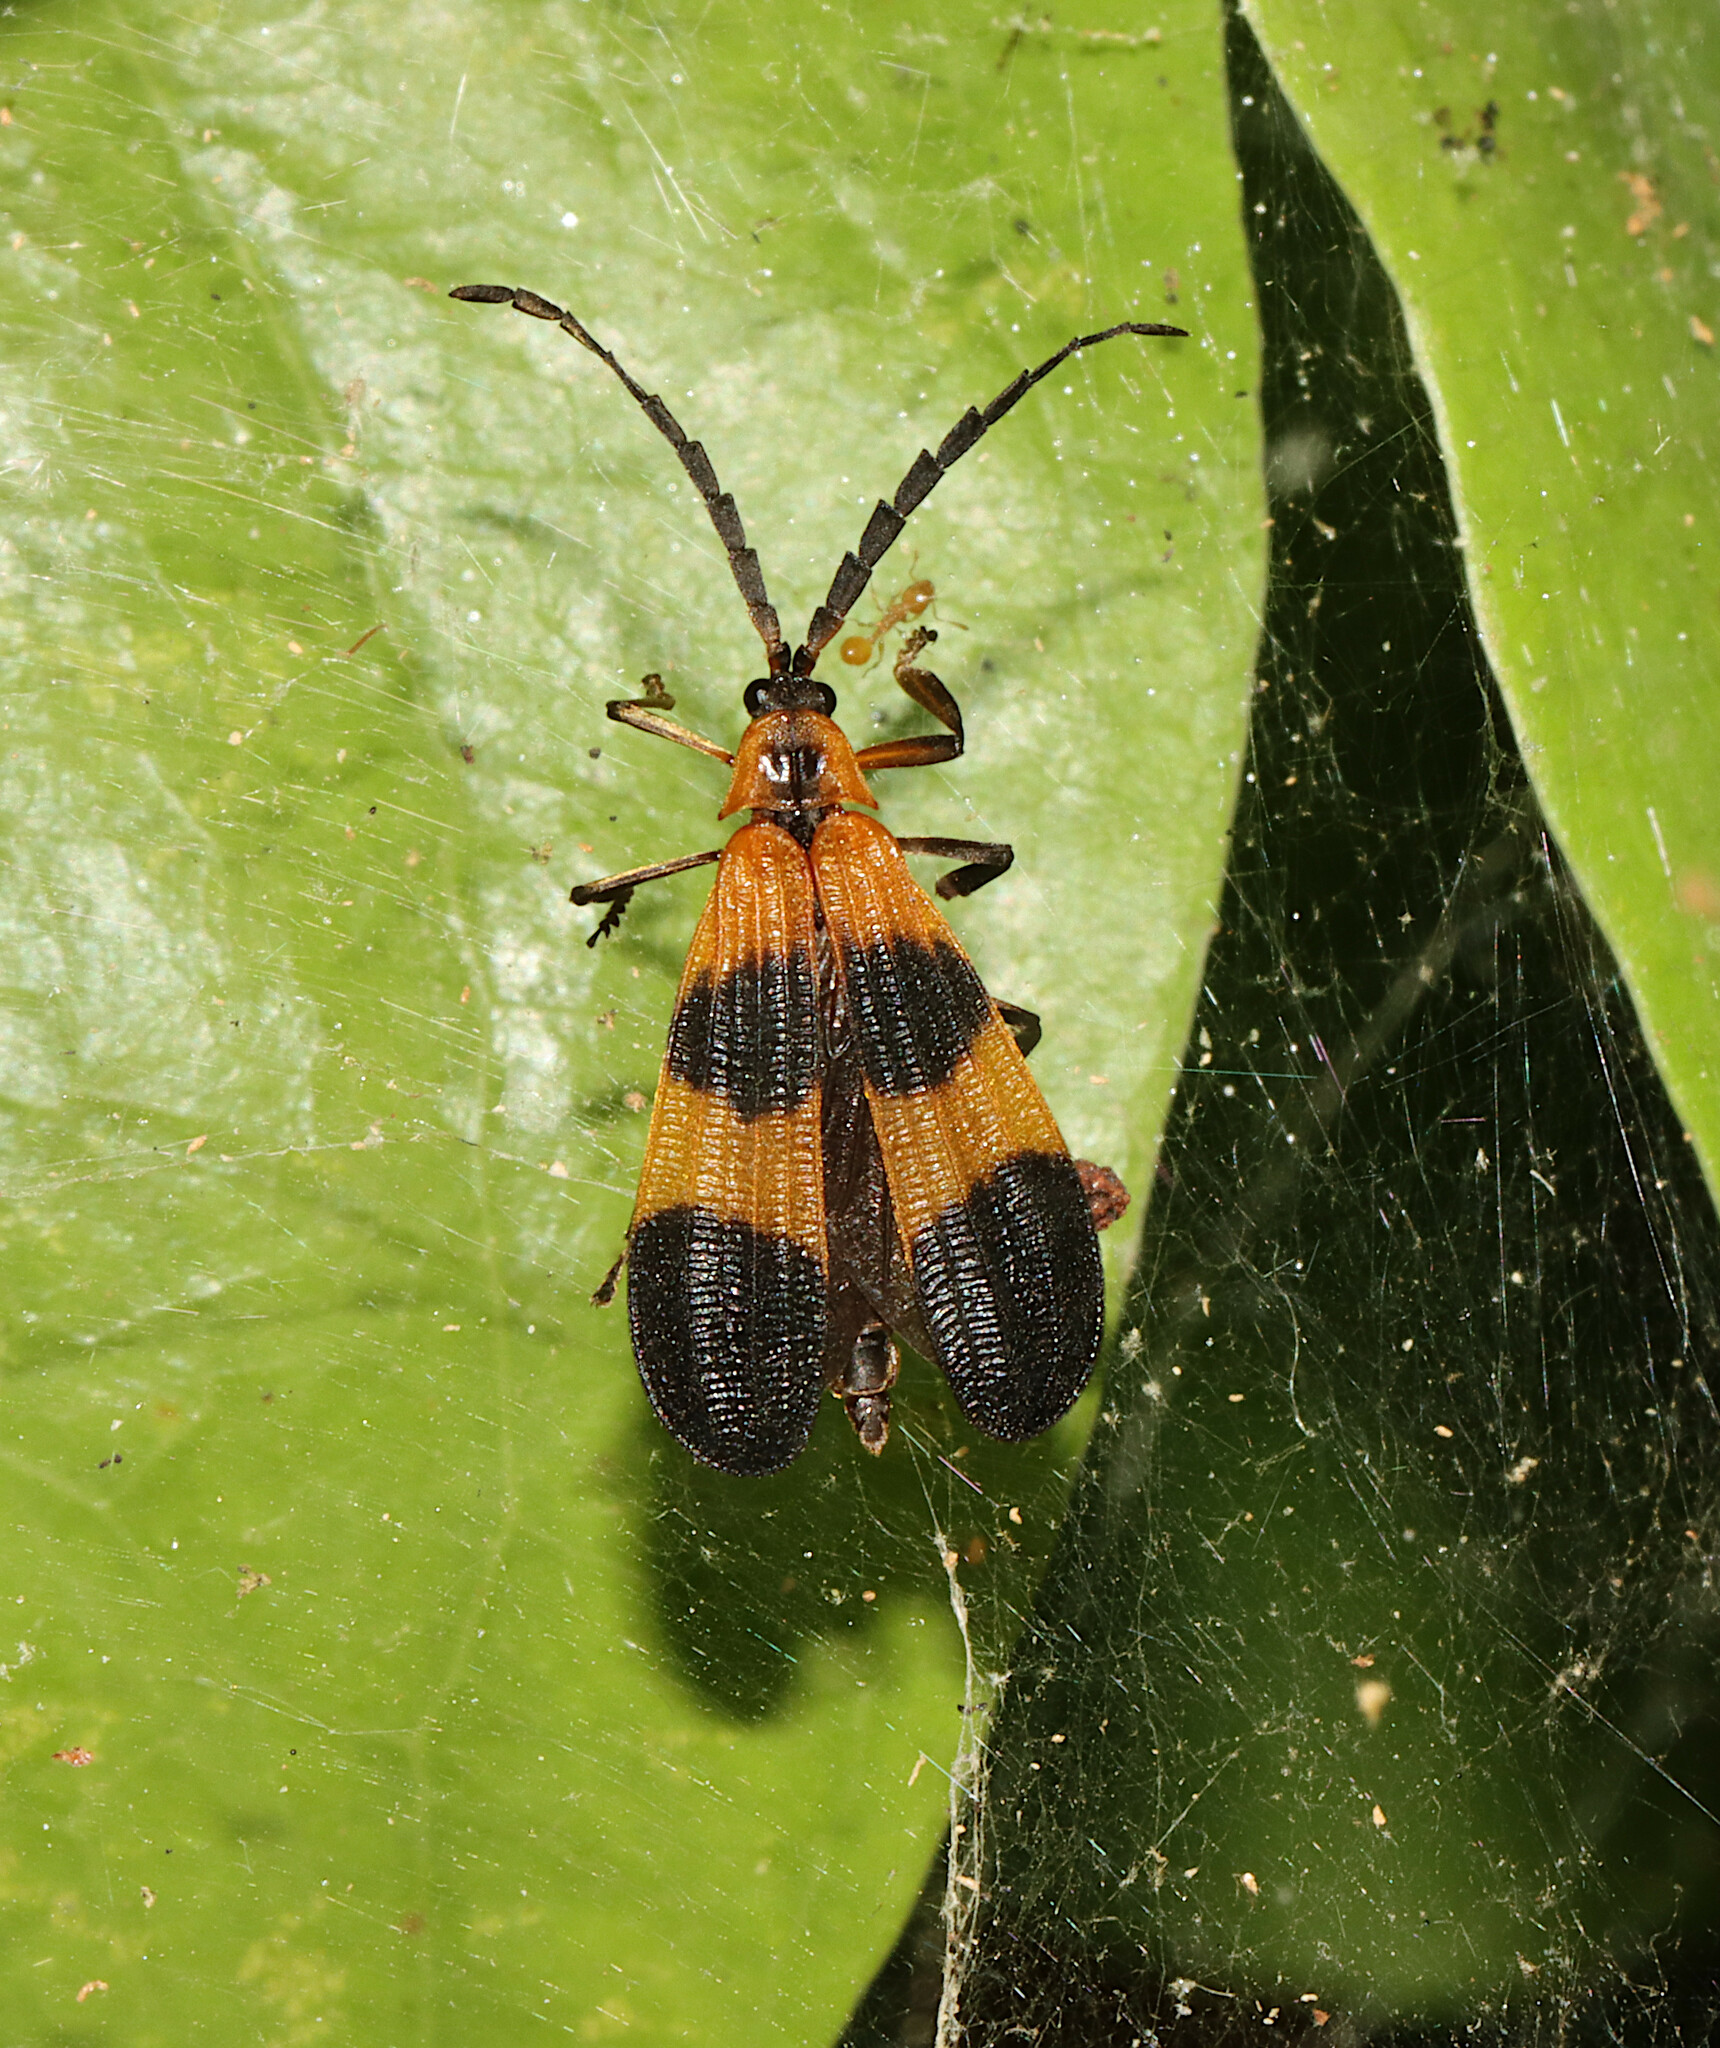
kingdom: Animalia
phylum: Arthropoda
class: Insecta
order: Coleoptera
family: Lycidae
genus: Calopteron
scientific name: Calopteron reticulatum
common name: Banded net-winged beetle
